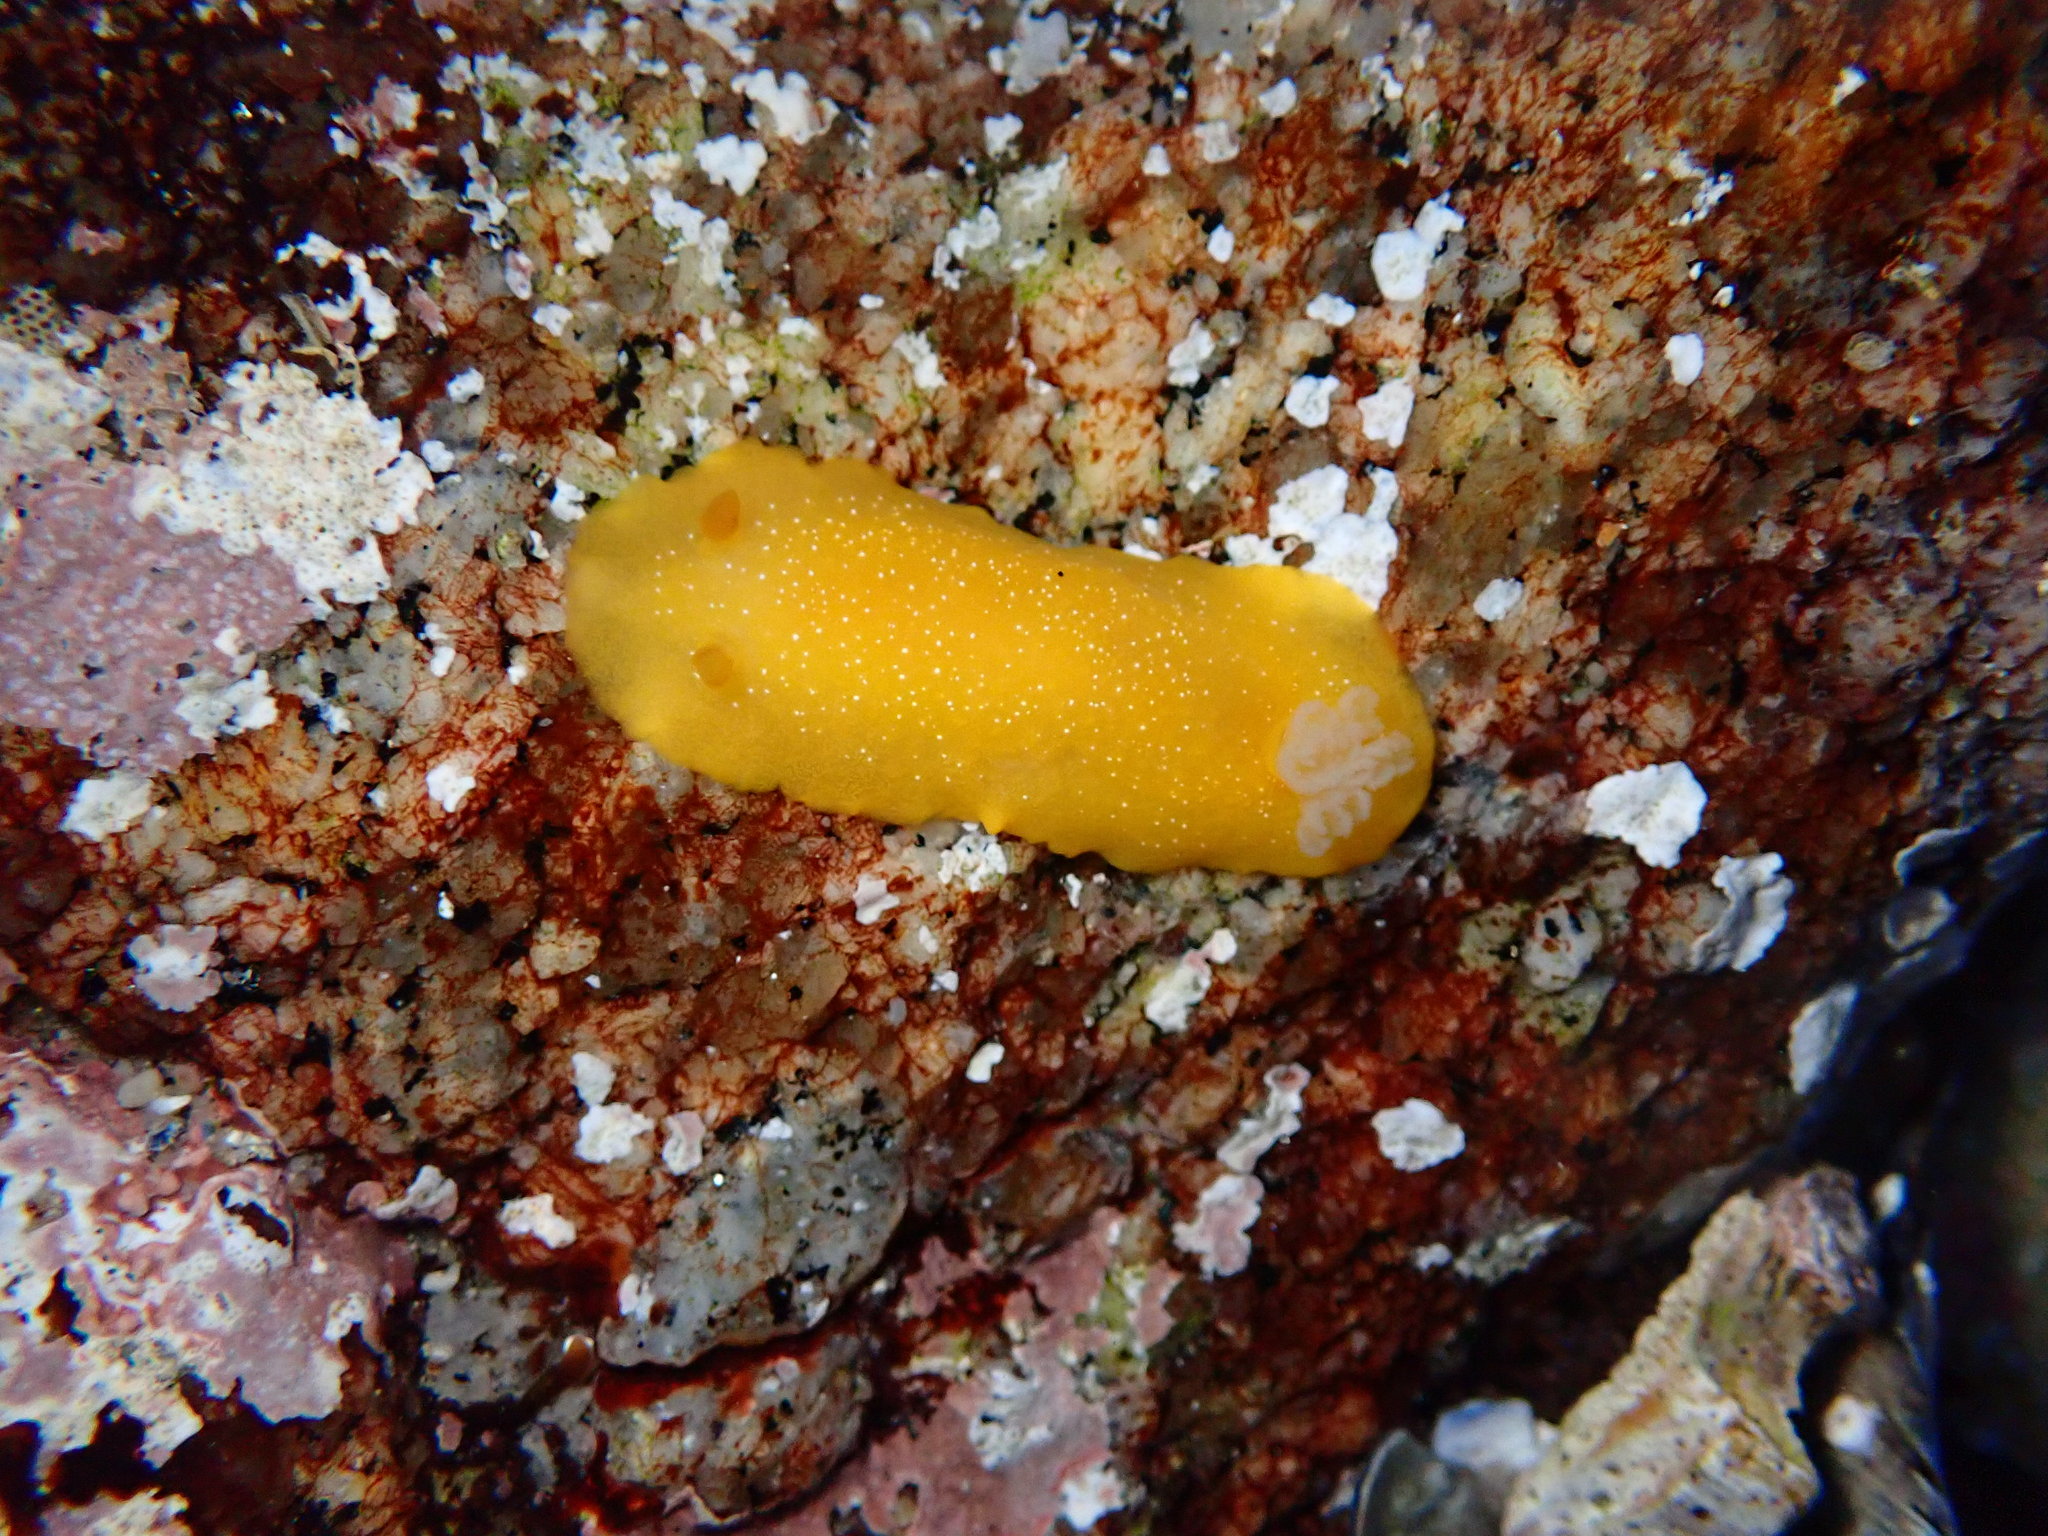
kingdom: Animalia
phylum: Mollusca
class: Gastropoda
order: Nudibranchia
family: Dendrodorididae
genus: Doriopsilla
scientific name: Doriopsilla fulva
